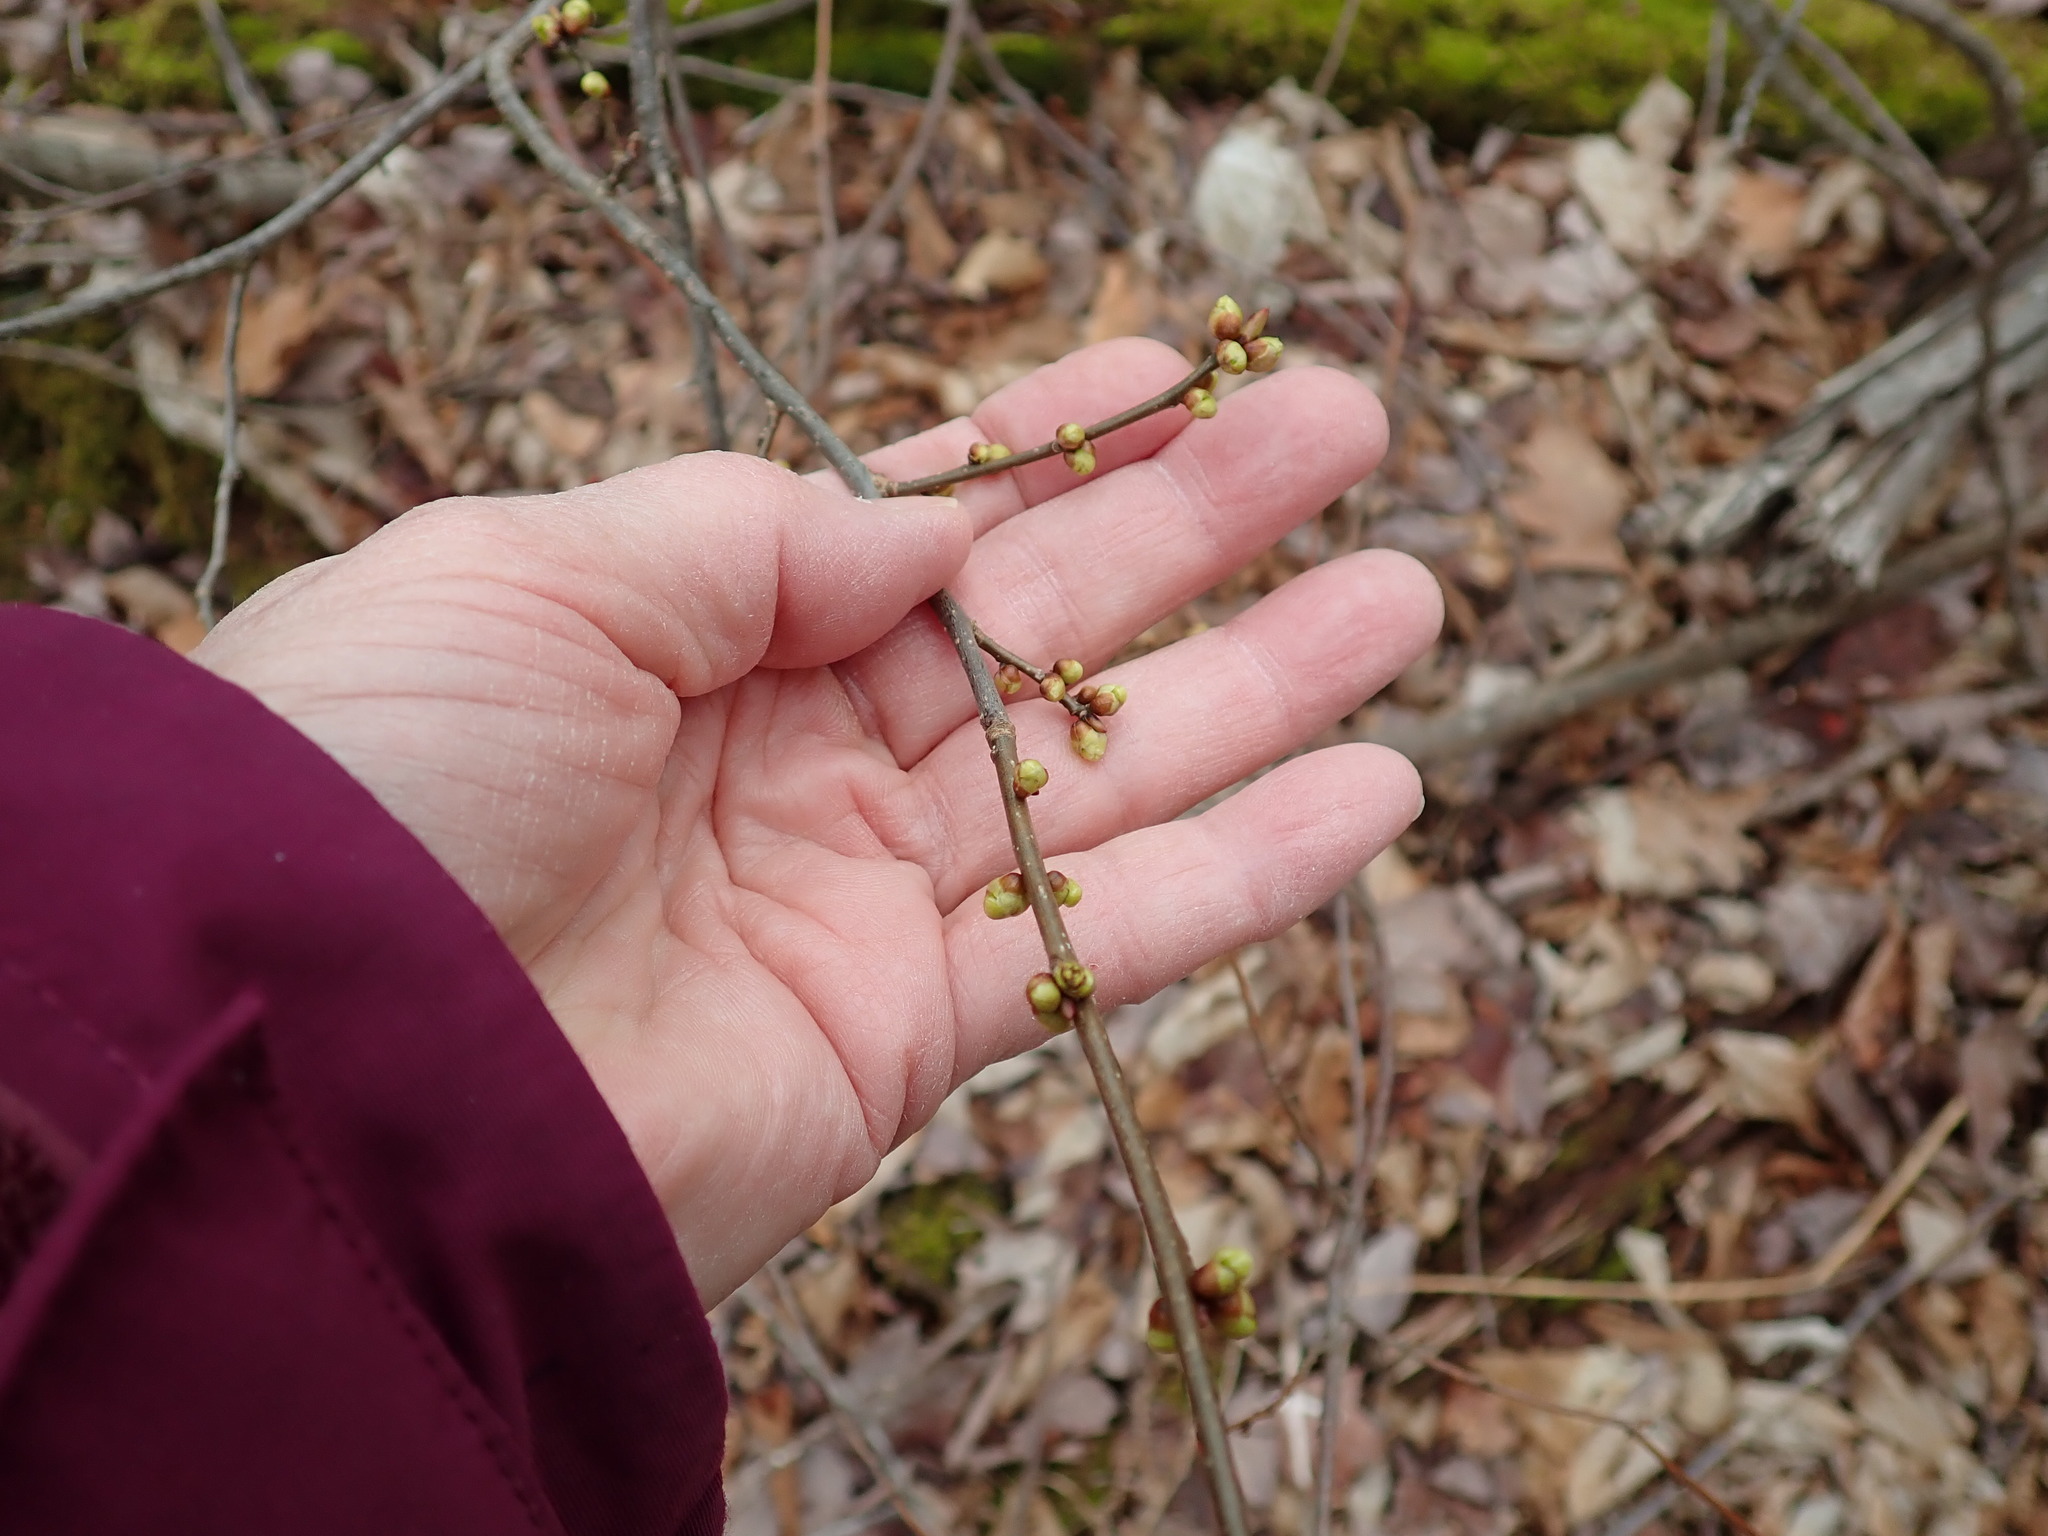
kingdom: Plantae
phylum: Tracheophyta
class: Magnoliopsida
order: Laurales
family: Lauraceae
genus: Lindera
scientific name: Lindera benzoin
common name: Spicebush
